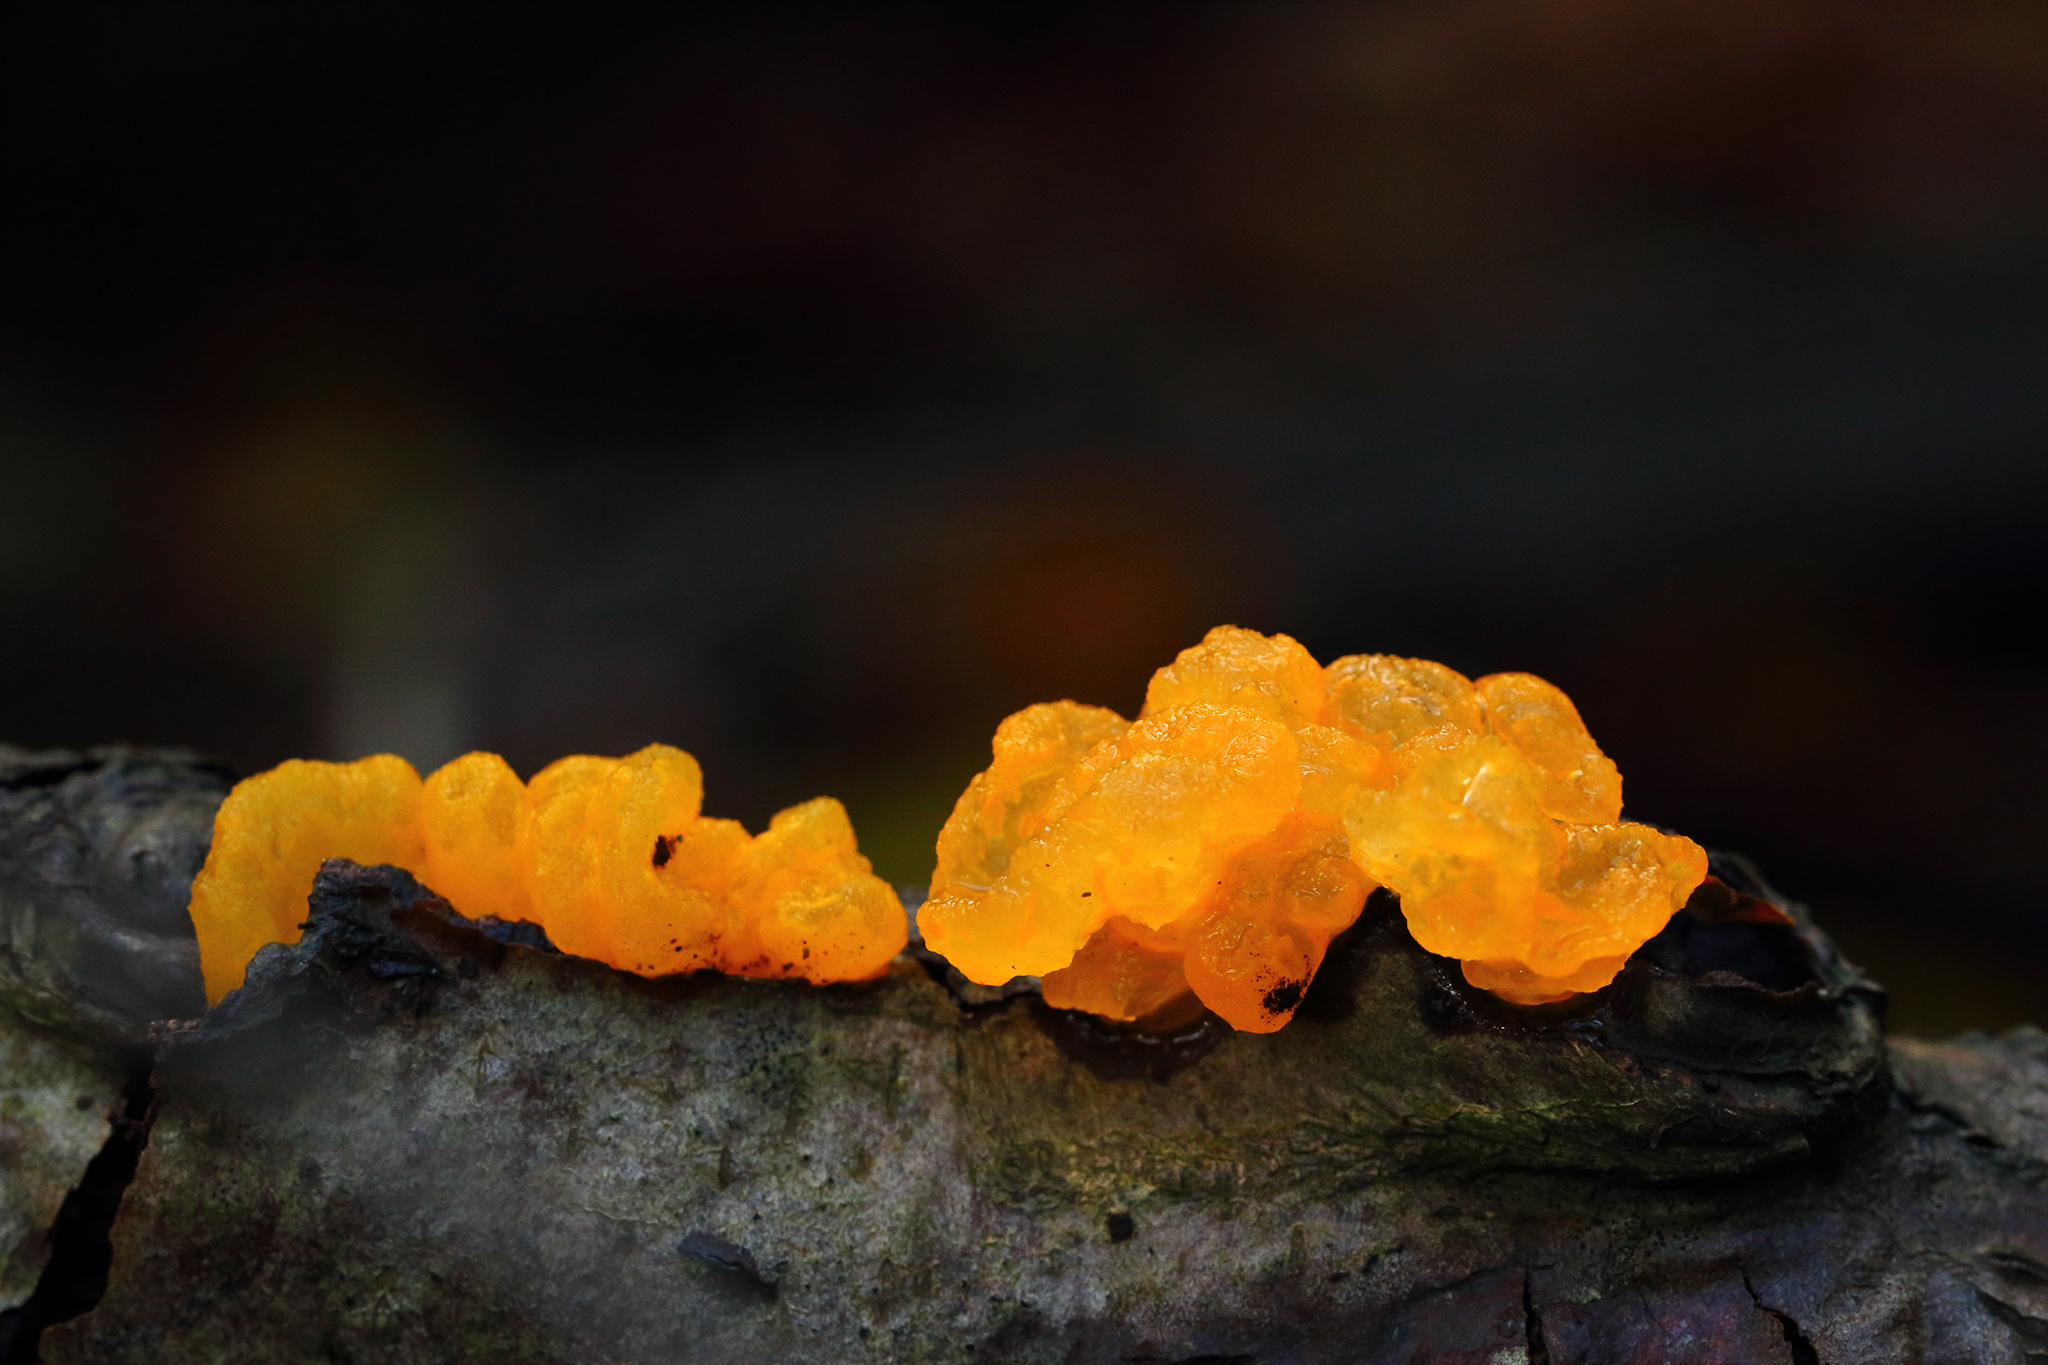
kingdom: Fungi
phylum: Basidiomycota
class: Tremellomycetes
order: Tremellales
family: Tremellaceae
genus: Tremella
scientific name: Tremella mesenterica
